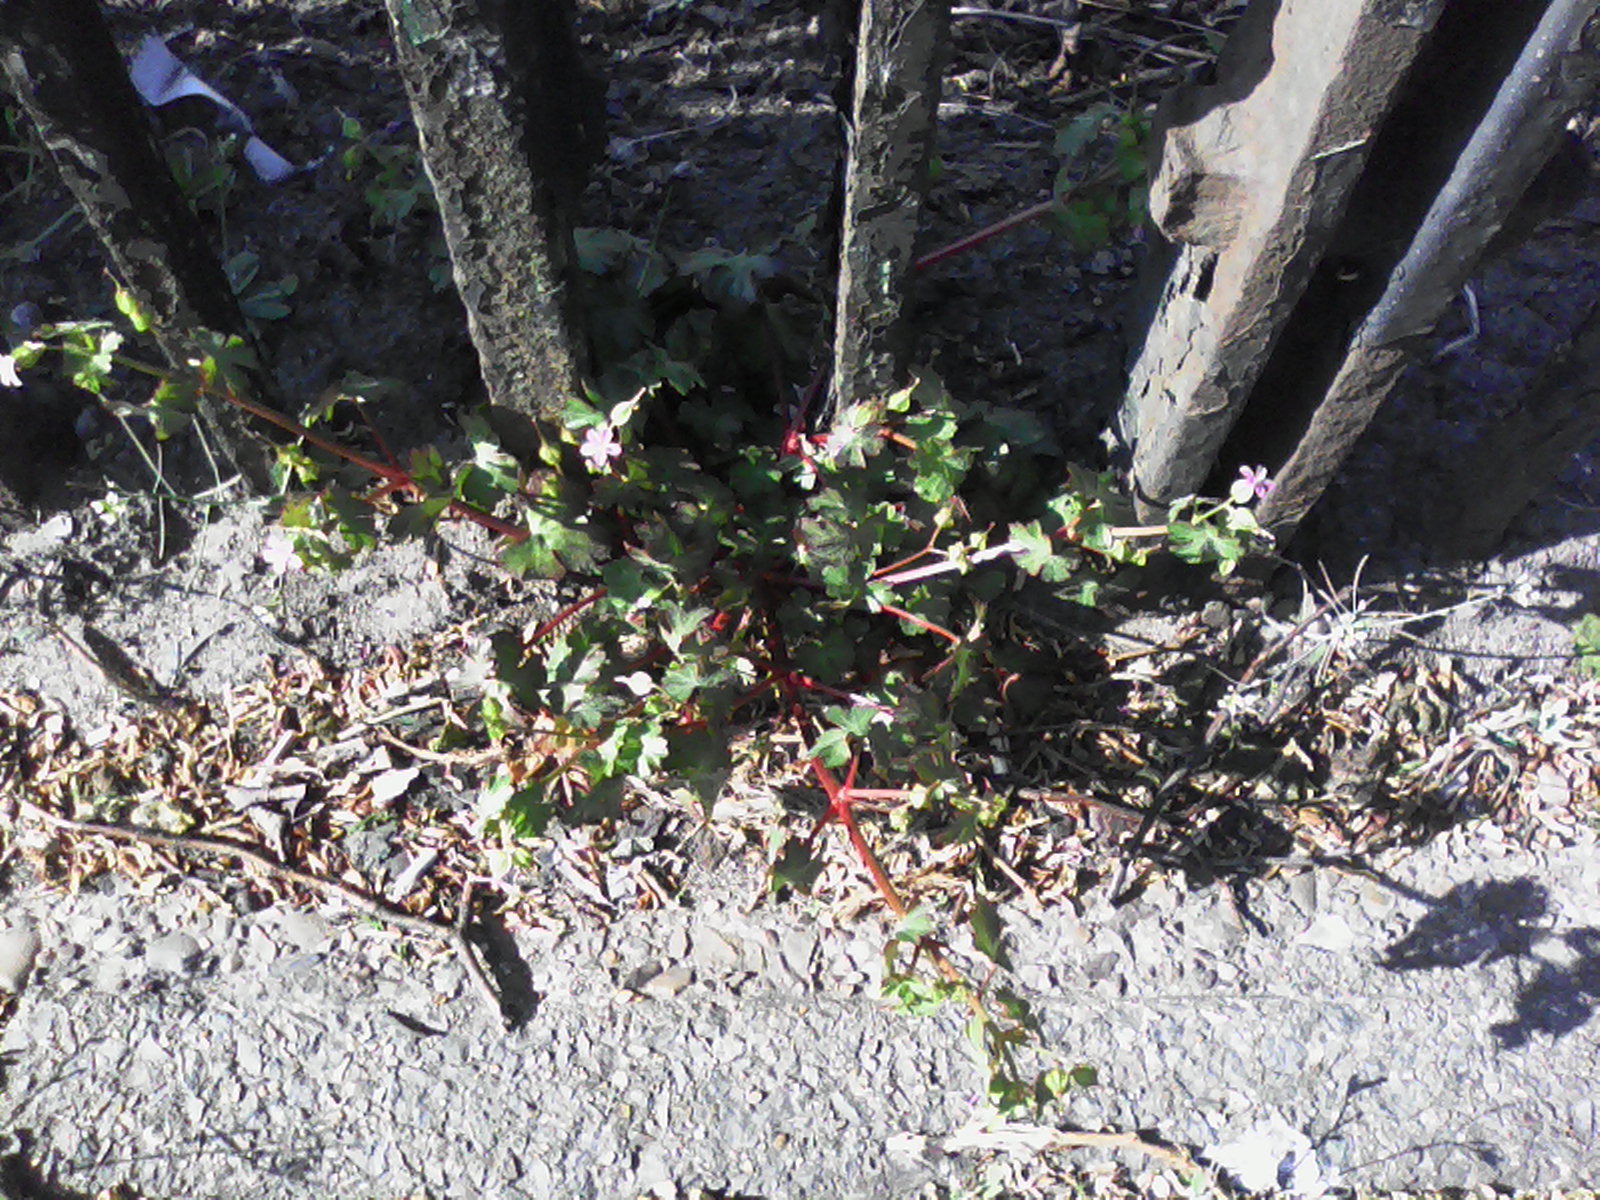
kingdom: Plantae
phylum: Tracheophyta
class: Magnoliopsida
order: Geraniales
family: Geraniaceae
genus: Geranium
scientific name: Geranium lucidum
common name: Shining crane's-bill
